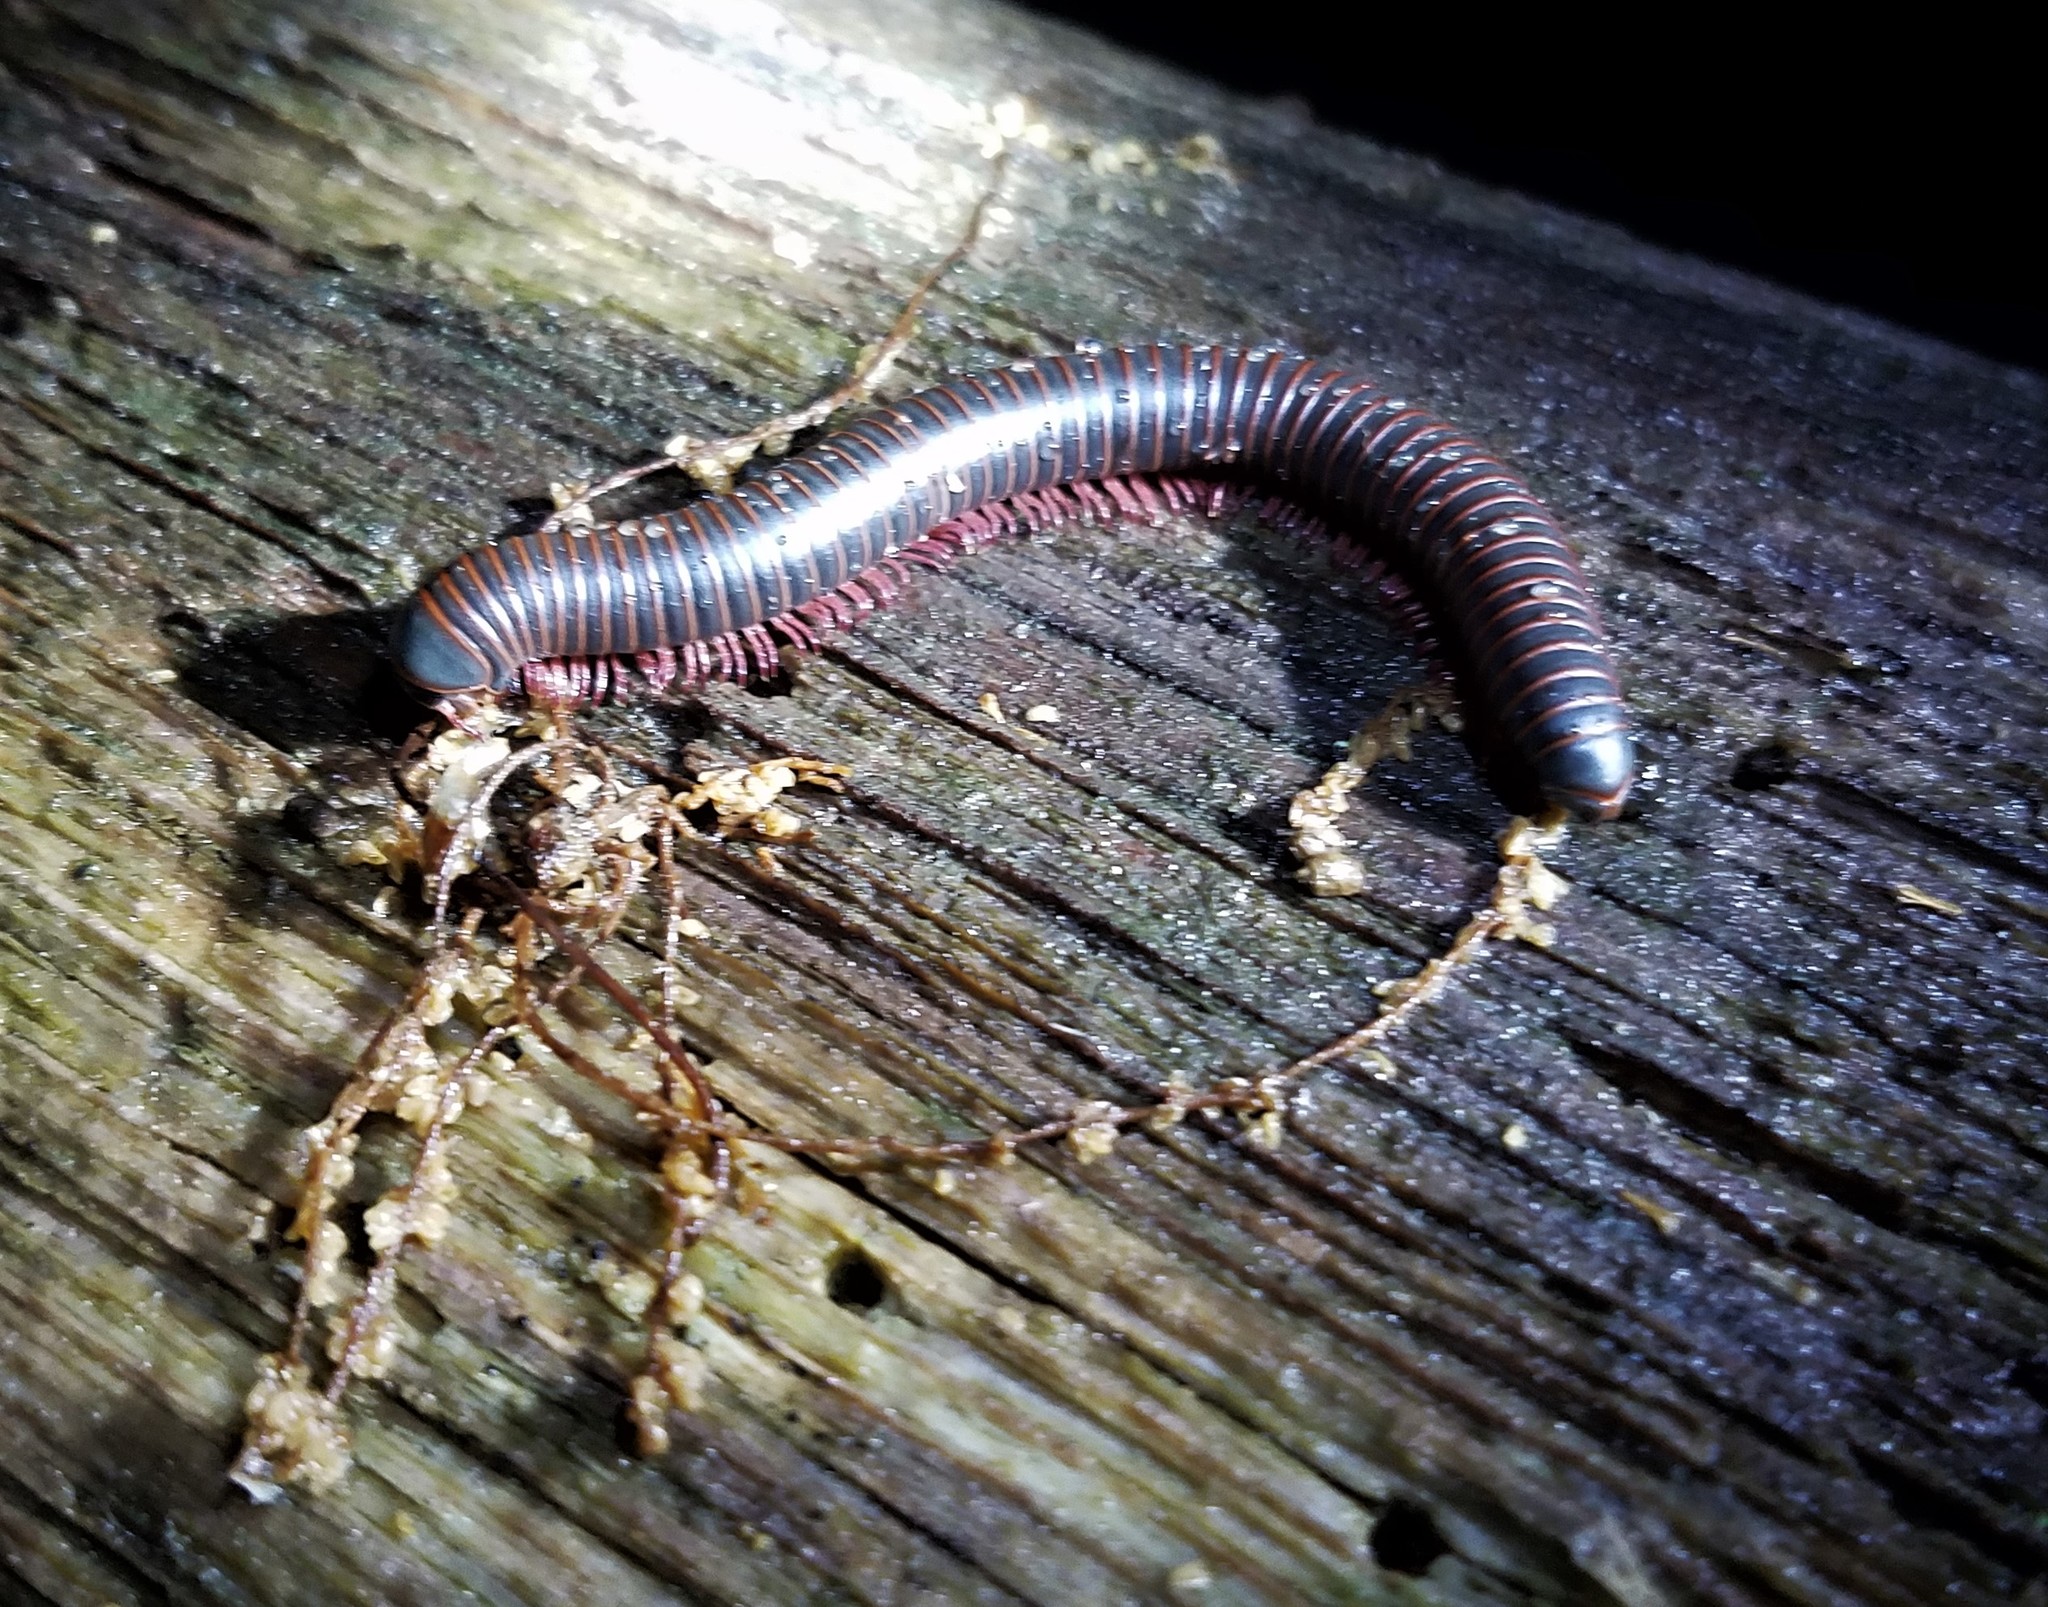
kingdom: Animalia
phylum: Arthropoda
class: Diplopoda
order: Spirobolida
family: Spirobolidae
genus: Narceus
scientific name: Narceus
